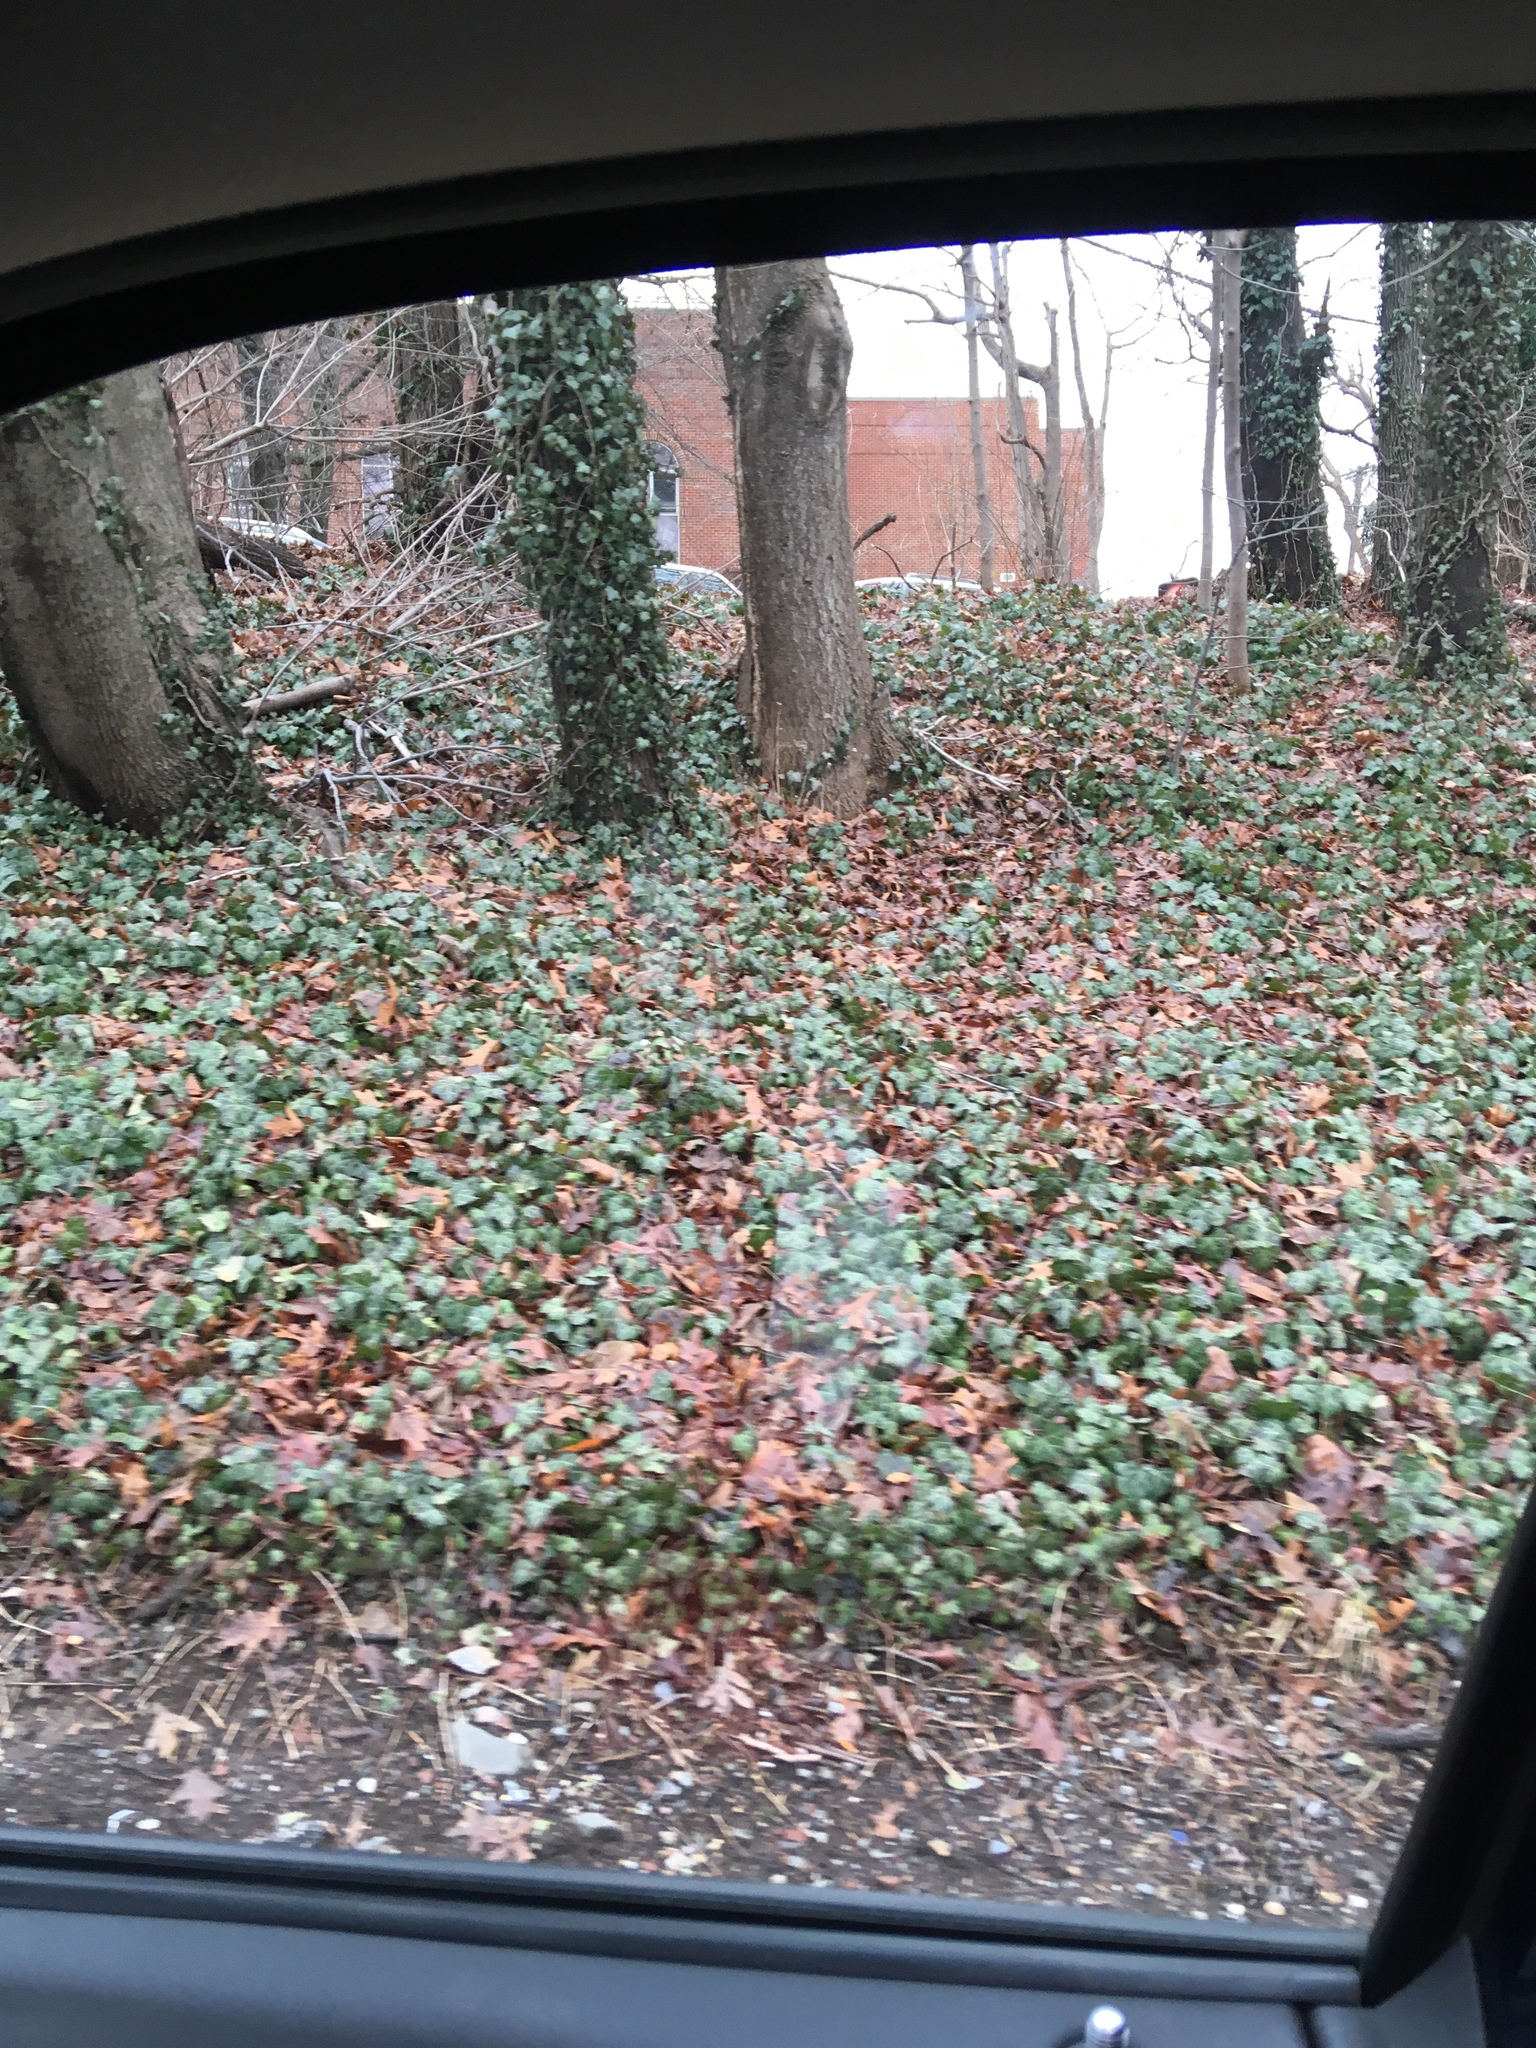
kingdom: Plantae
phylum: Tracheophyta
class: Magnoliopsida
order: Apiales
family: Araliaceae
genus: Hedera
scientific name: Hedera helix
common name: Ivy
